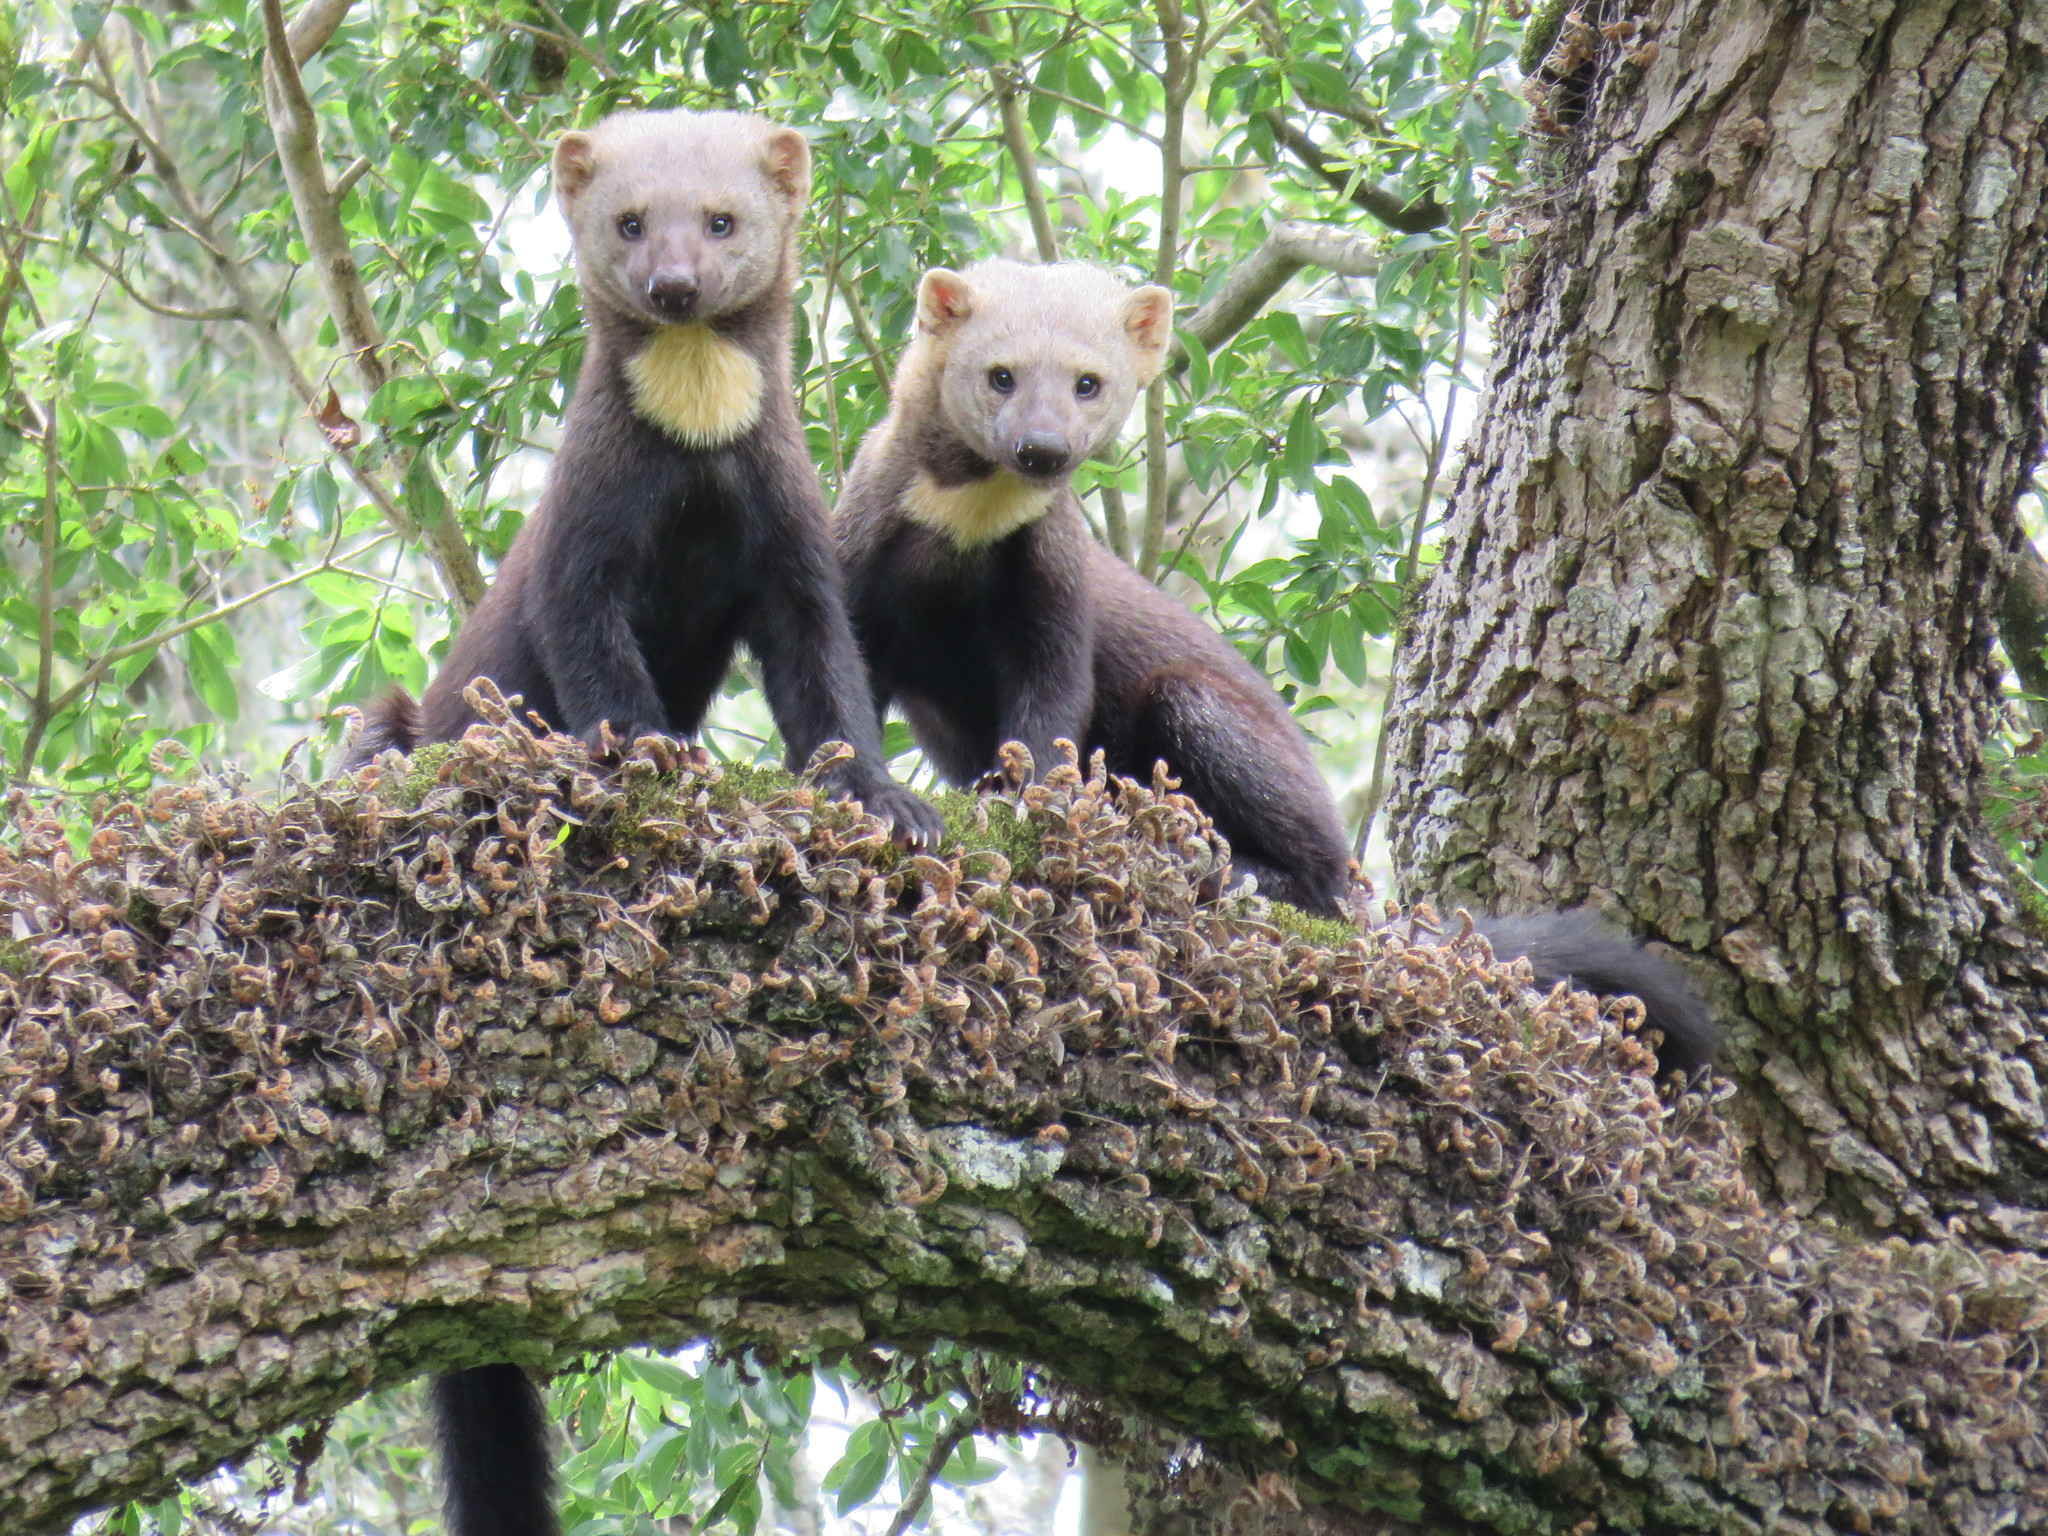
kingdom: Animalia
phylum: Chordata
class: Mammalia
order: Carnivora
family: Mustelidae
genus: Eira
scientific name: Eira barbara
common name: Tayra
